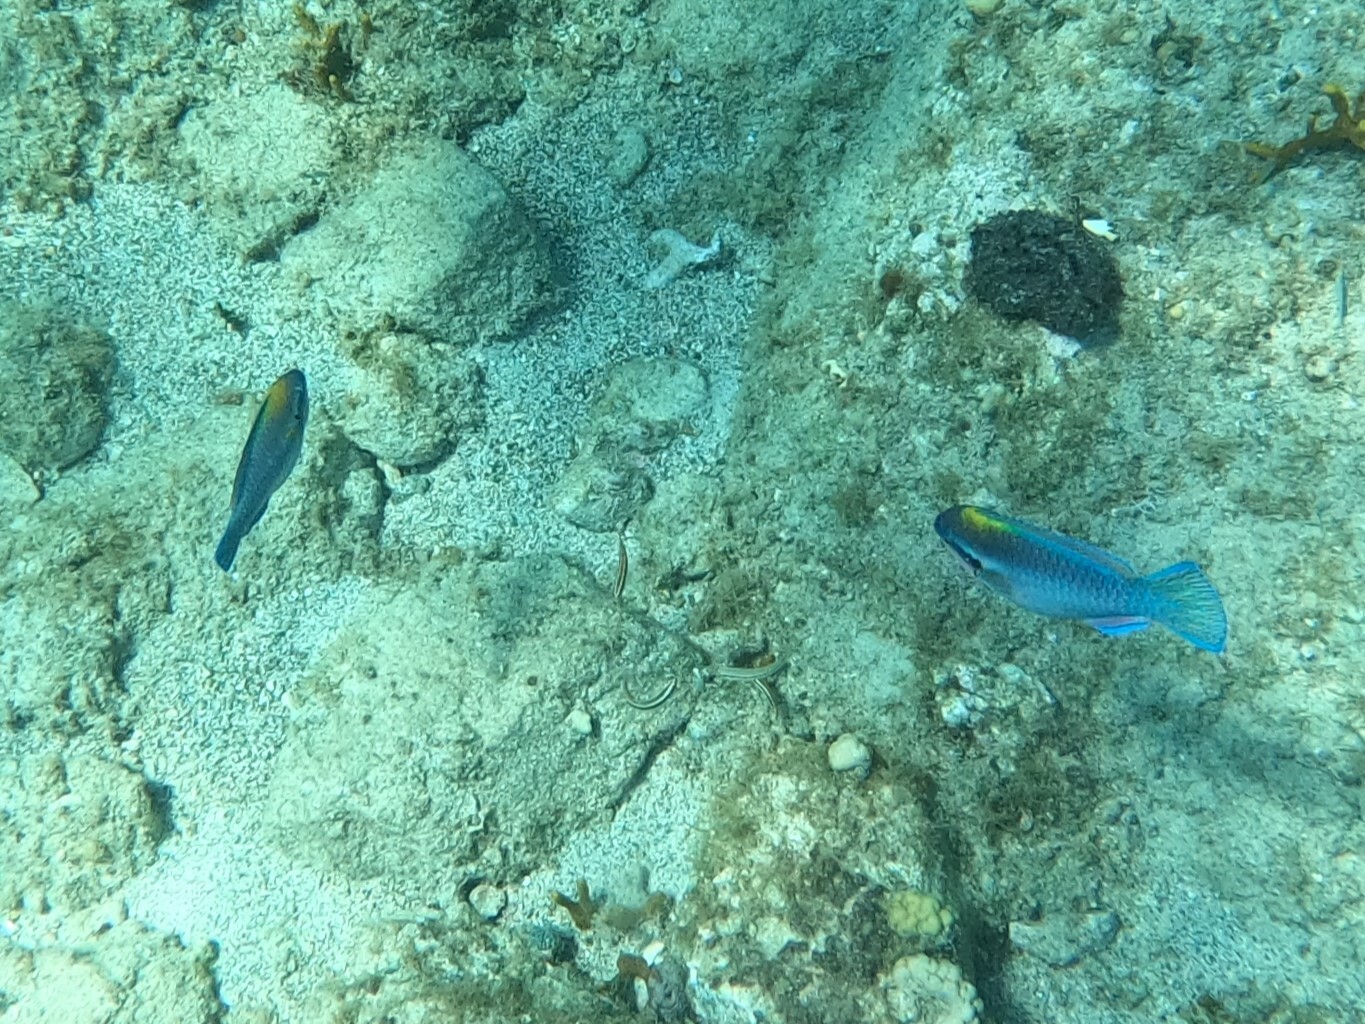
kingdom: Animalia
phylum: Chordata
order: Perciformes
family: Scaridae
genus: Scarus
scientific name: Scarus iseri
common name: Striped parrotfish
